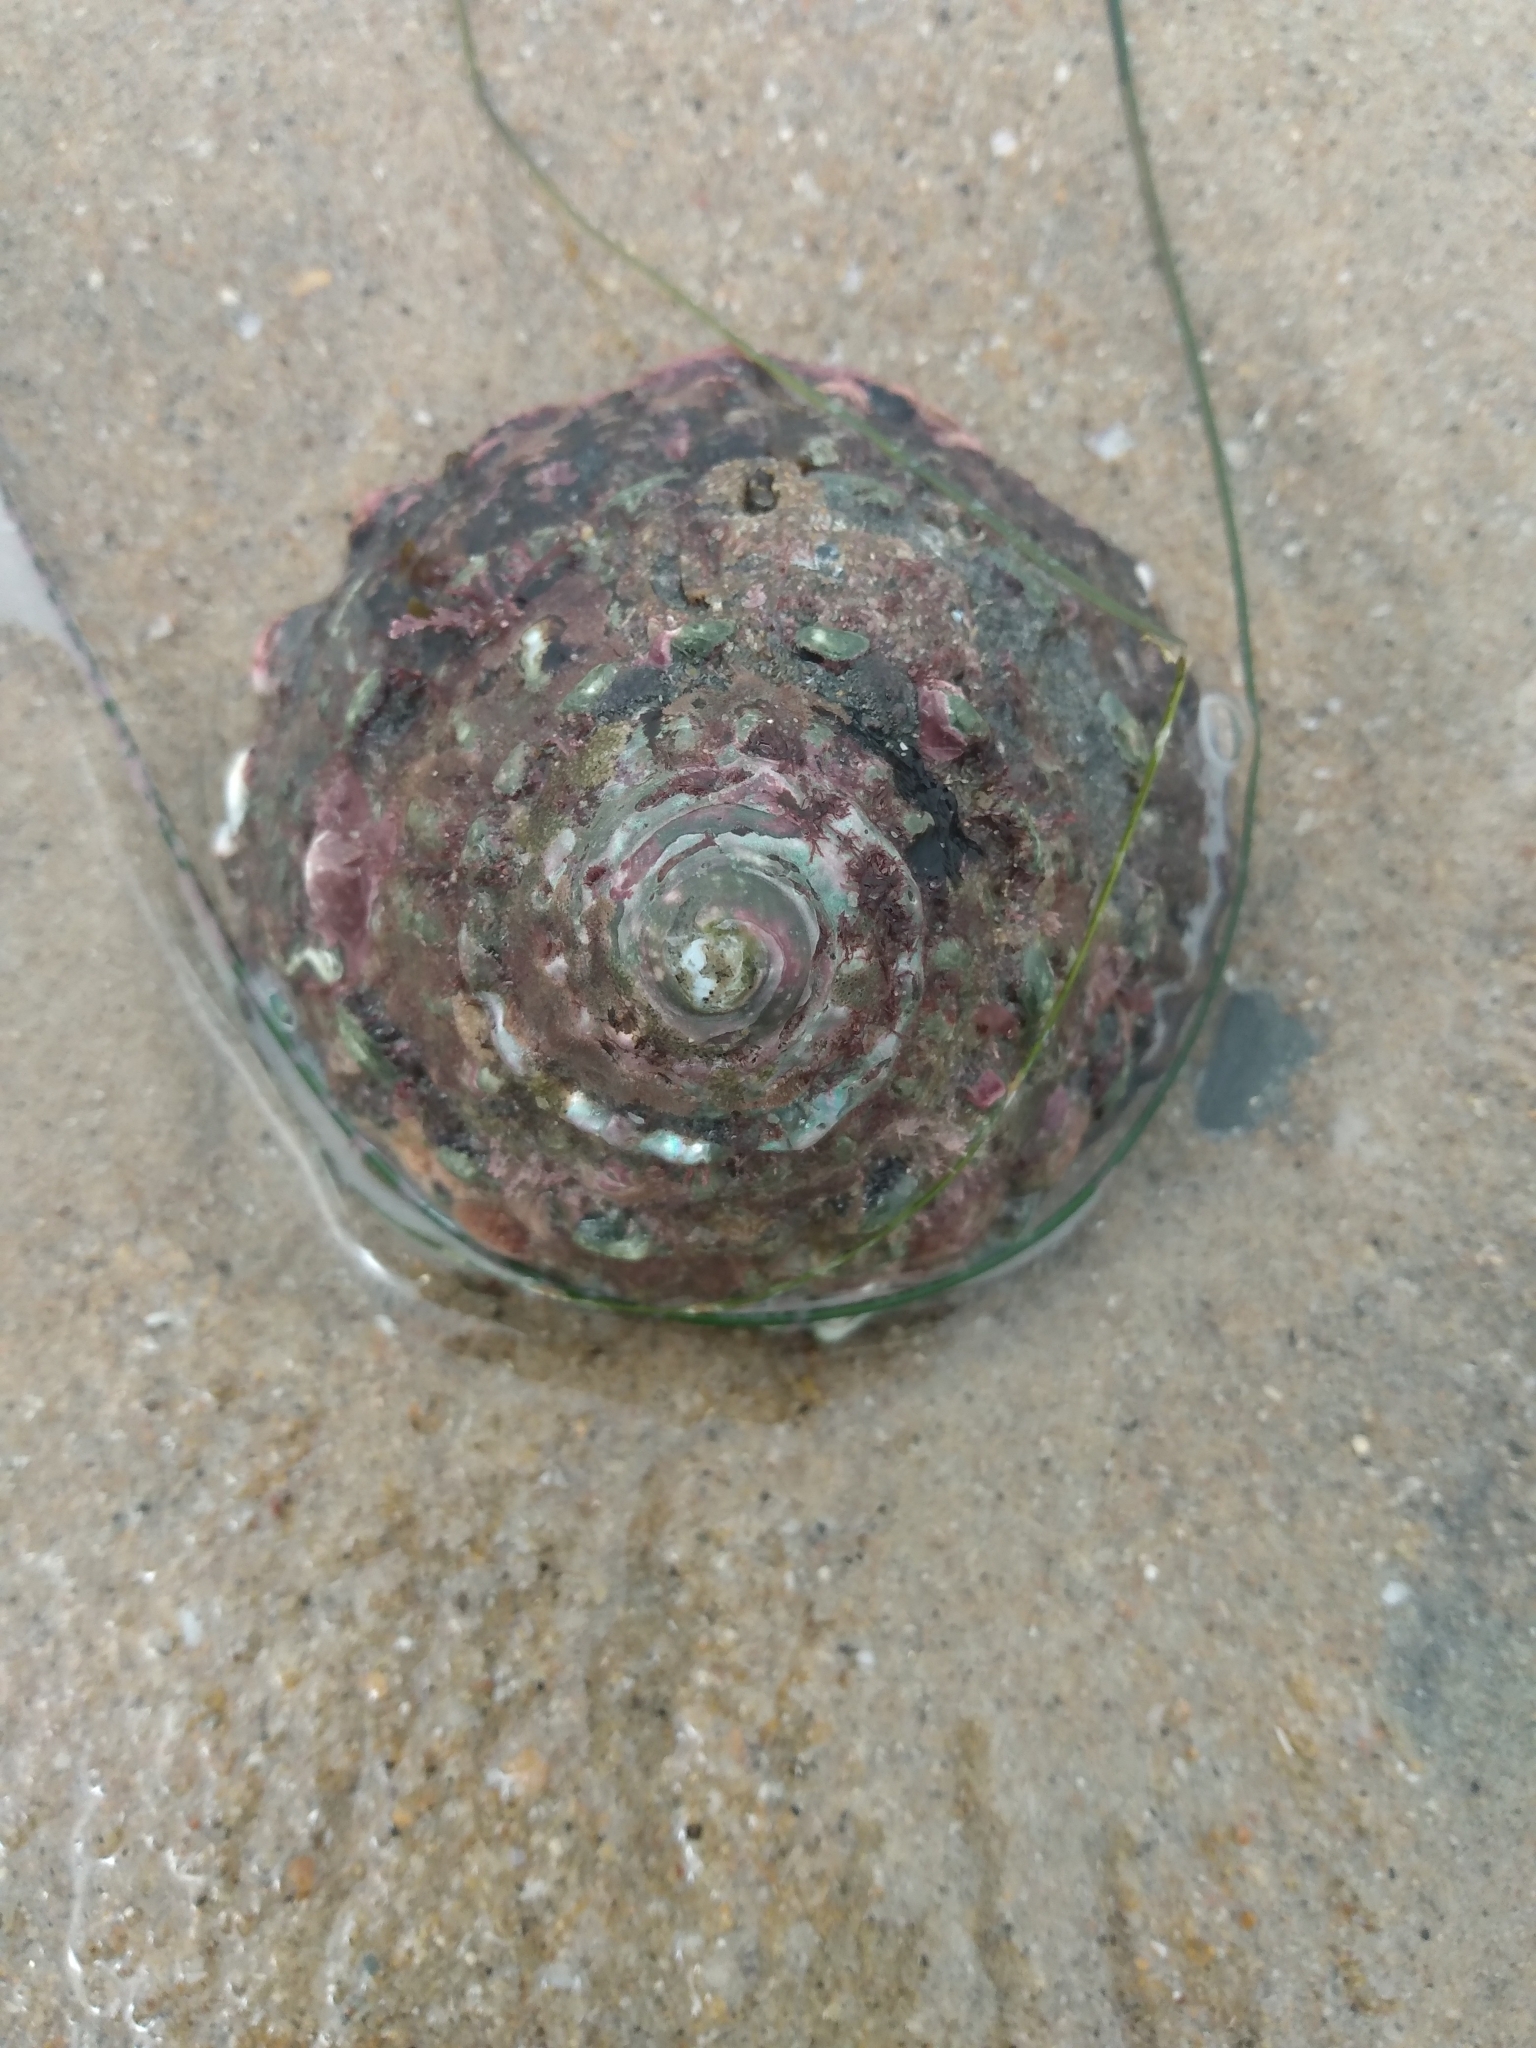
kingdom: Animalia
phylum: Mollusca
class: Gastropoda
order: Trochida
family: Turbinidae
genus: Megastraea
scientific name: Megastraea undosa
